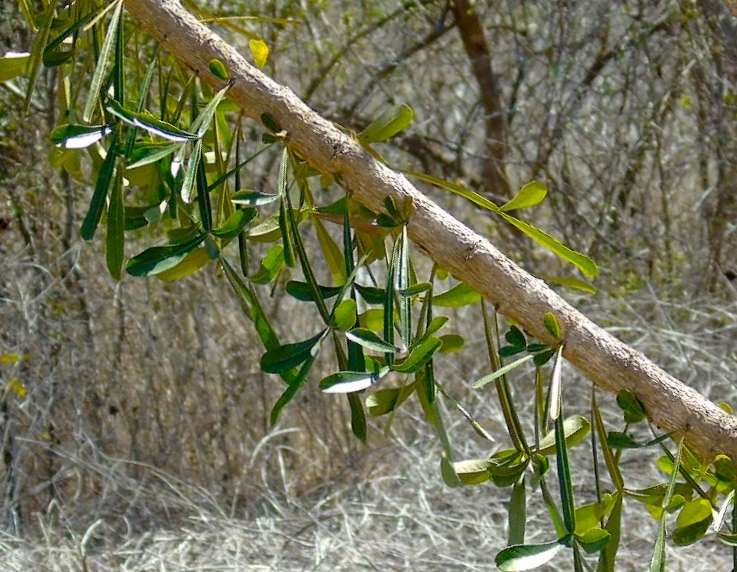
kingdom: Plantae
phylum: Tracheophyta
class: Magnoliopsida
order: Lamiales
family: Bignoniaceae
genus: Crescentia
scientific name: Crescentia alata
